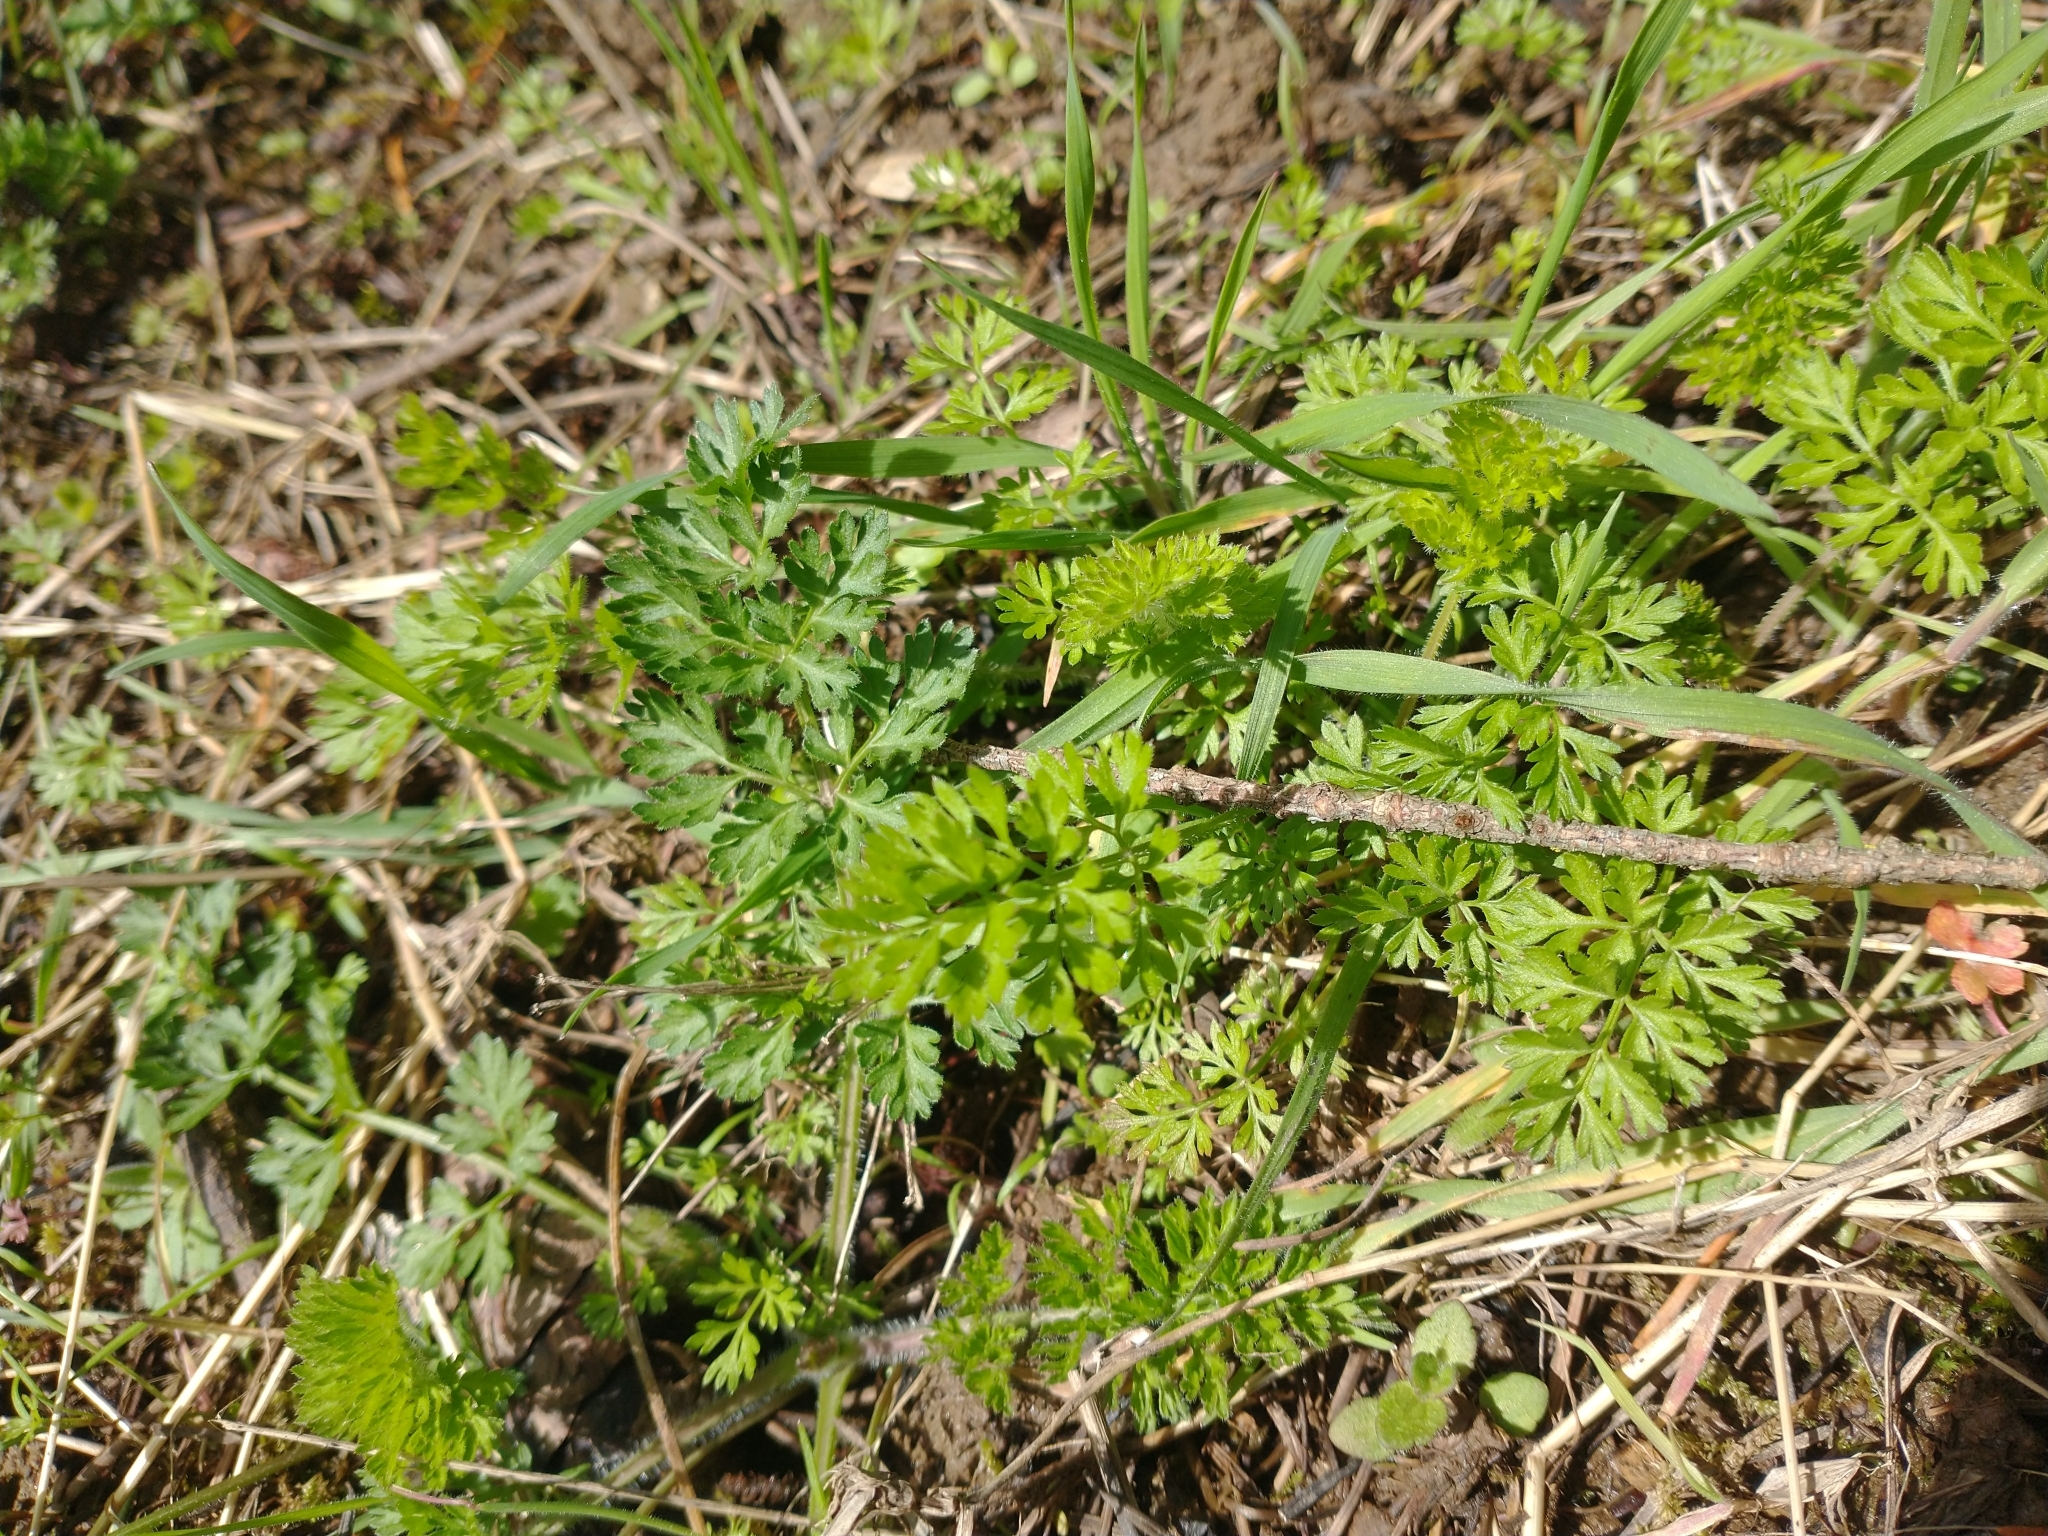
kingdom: Plantae
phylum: Tracheophyta
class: Magnoliopsida
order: Apiales
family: Apiaceae
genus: Daucus
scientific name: Daucus carota
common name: Wild carrot
